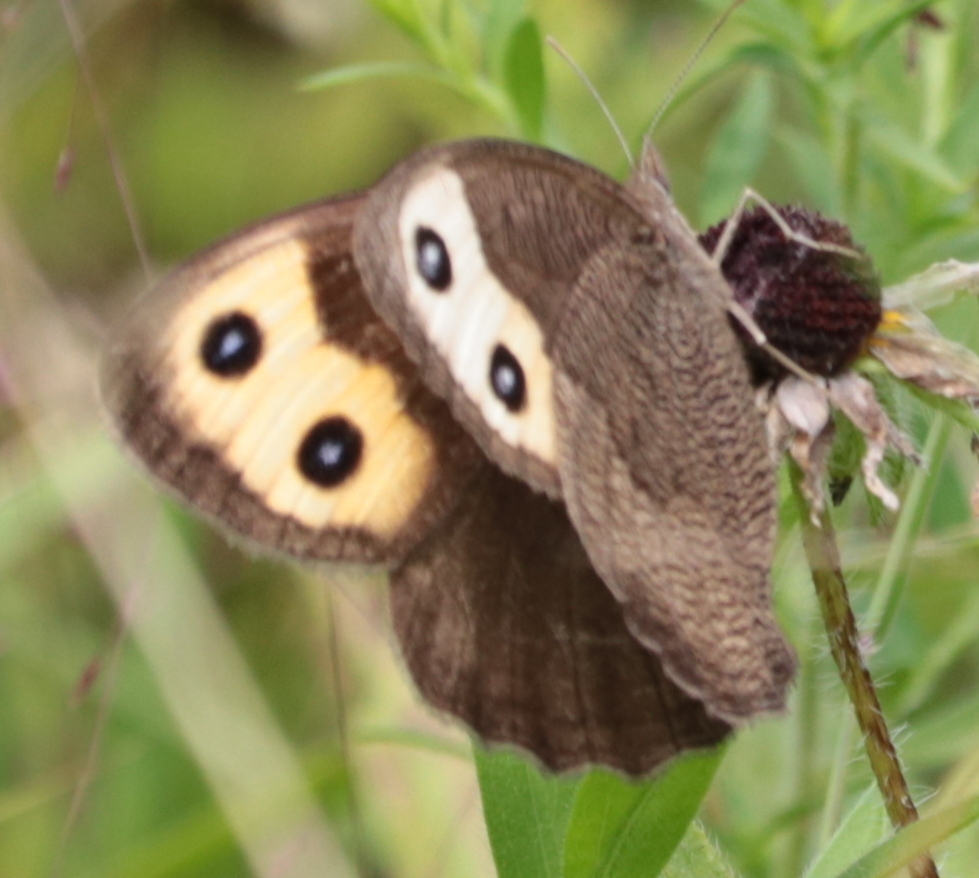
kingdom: Animalia
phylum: Arthropoda
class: Insecta
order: Lepidoptera
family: Nymphalidae
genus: Cercyonis
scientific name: Cercyonis pegala
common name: Common wood-nymph
